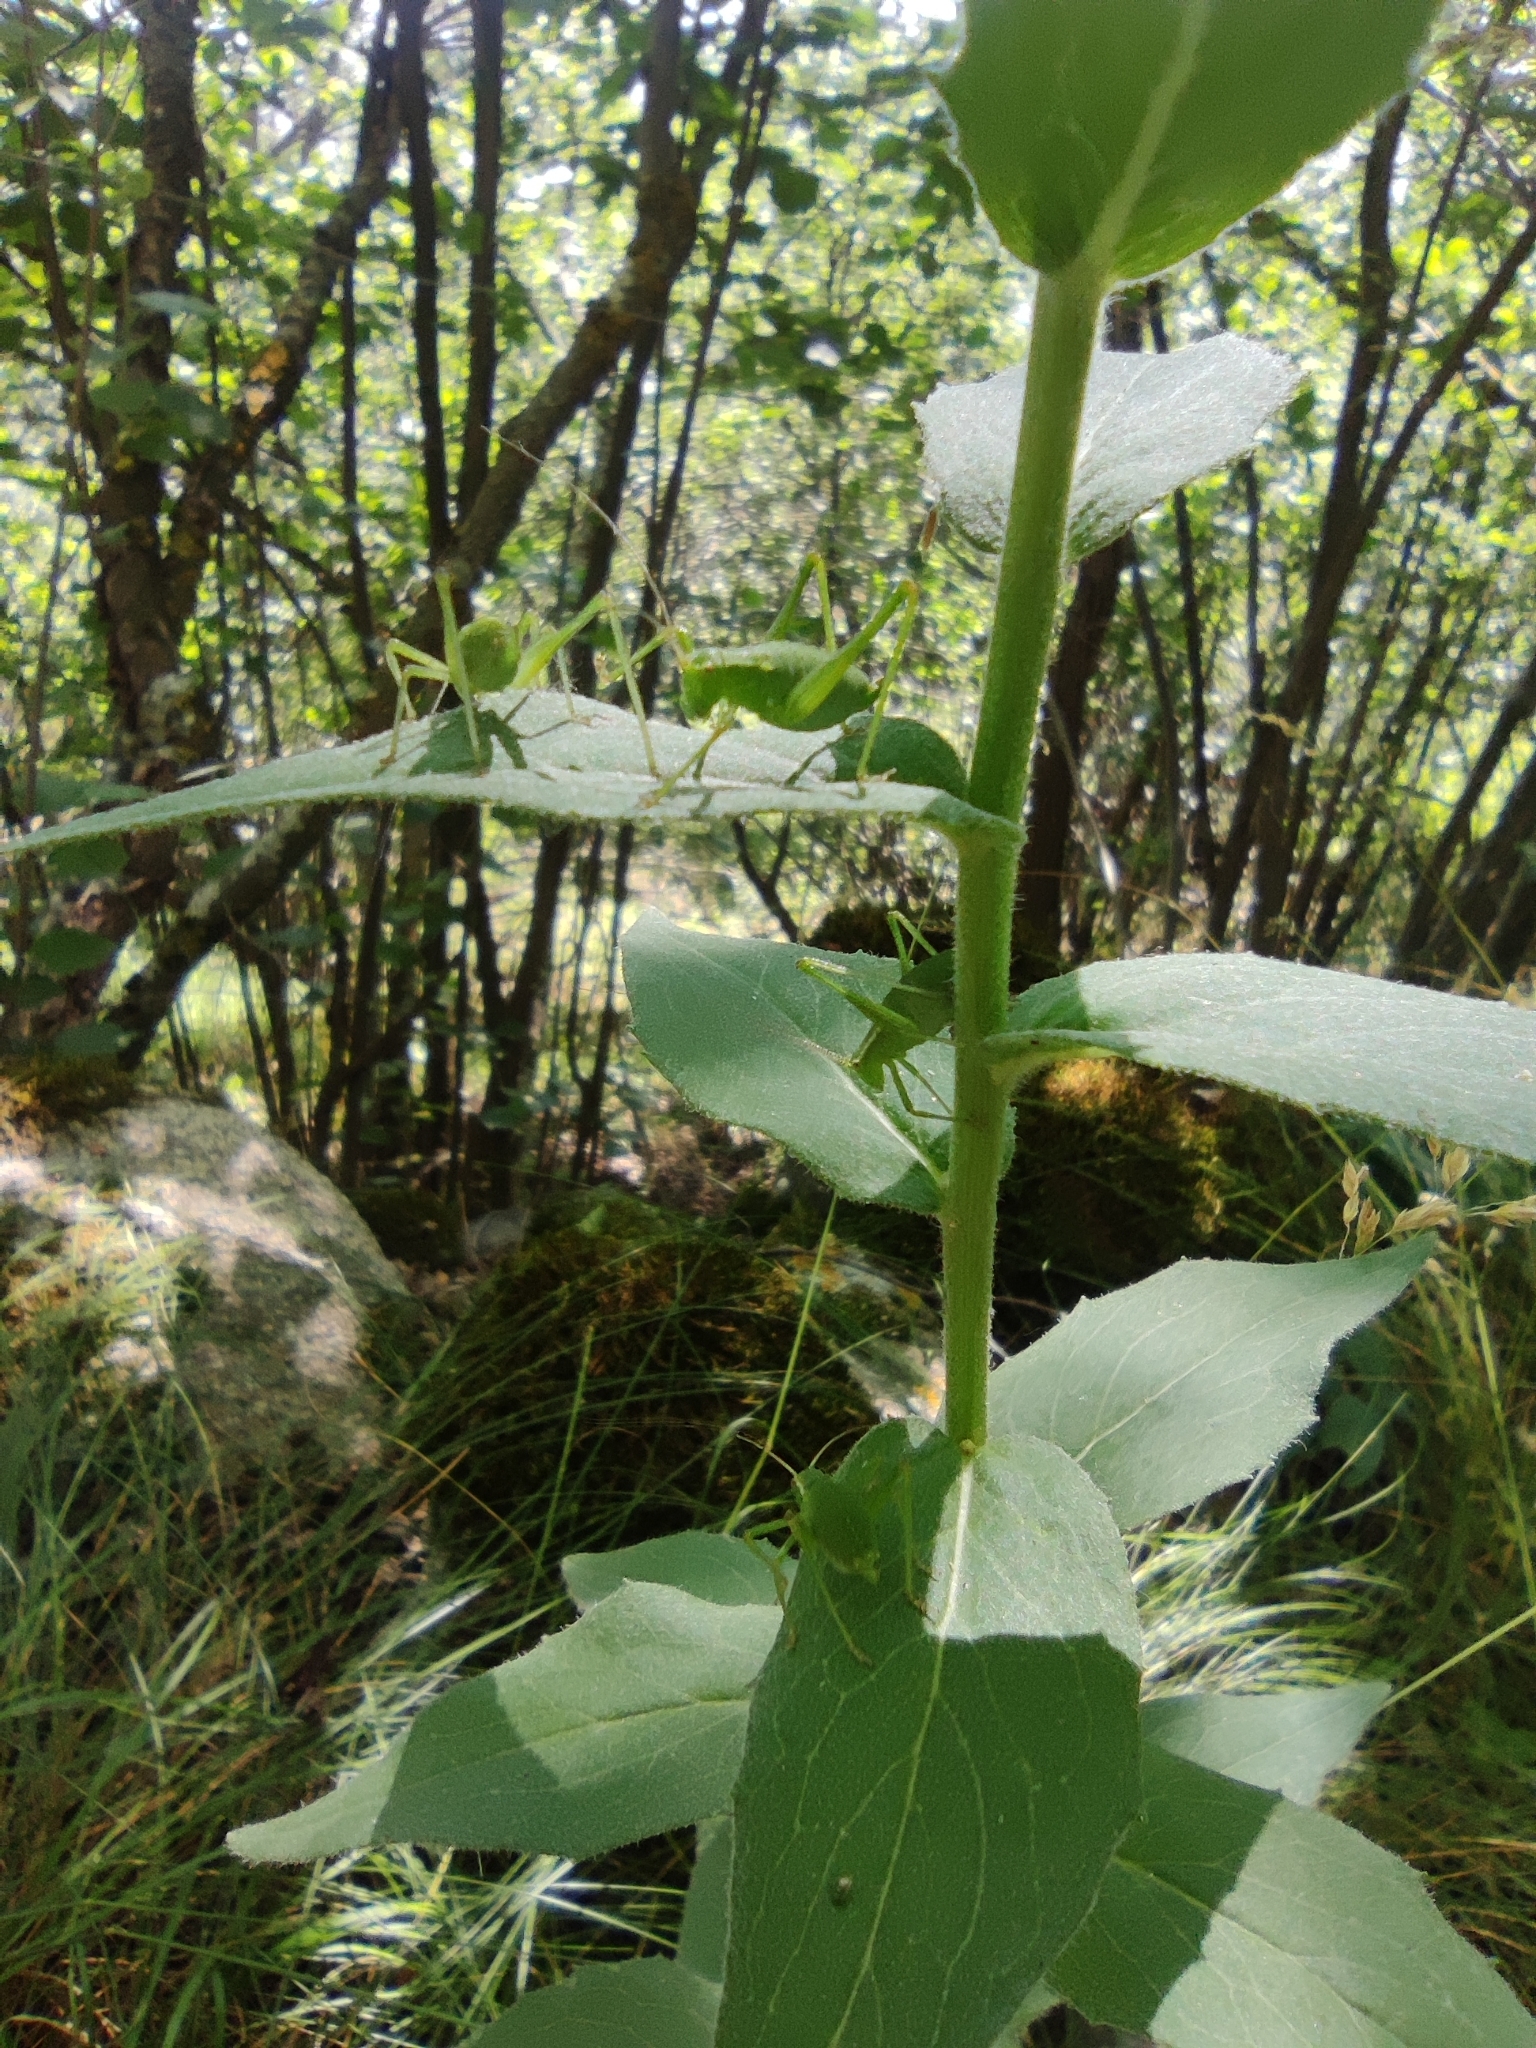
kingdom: Animalia
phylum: Arthropoda
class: Insecta
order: Orthoptera
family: Tettigoniidae
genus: Leptophyes
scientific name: Leptophyes punctatissima
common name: Speckled bush-cricket
